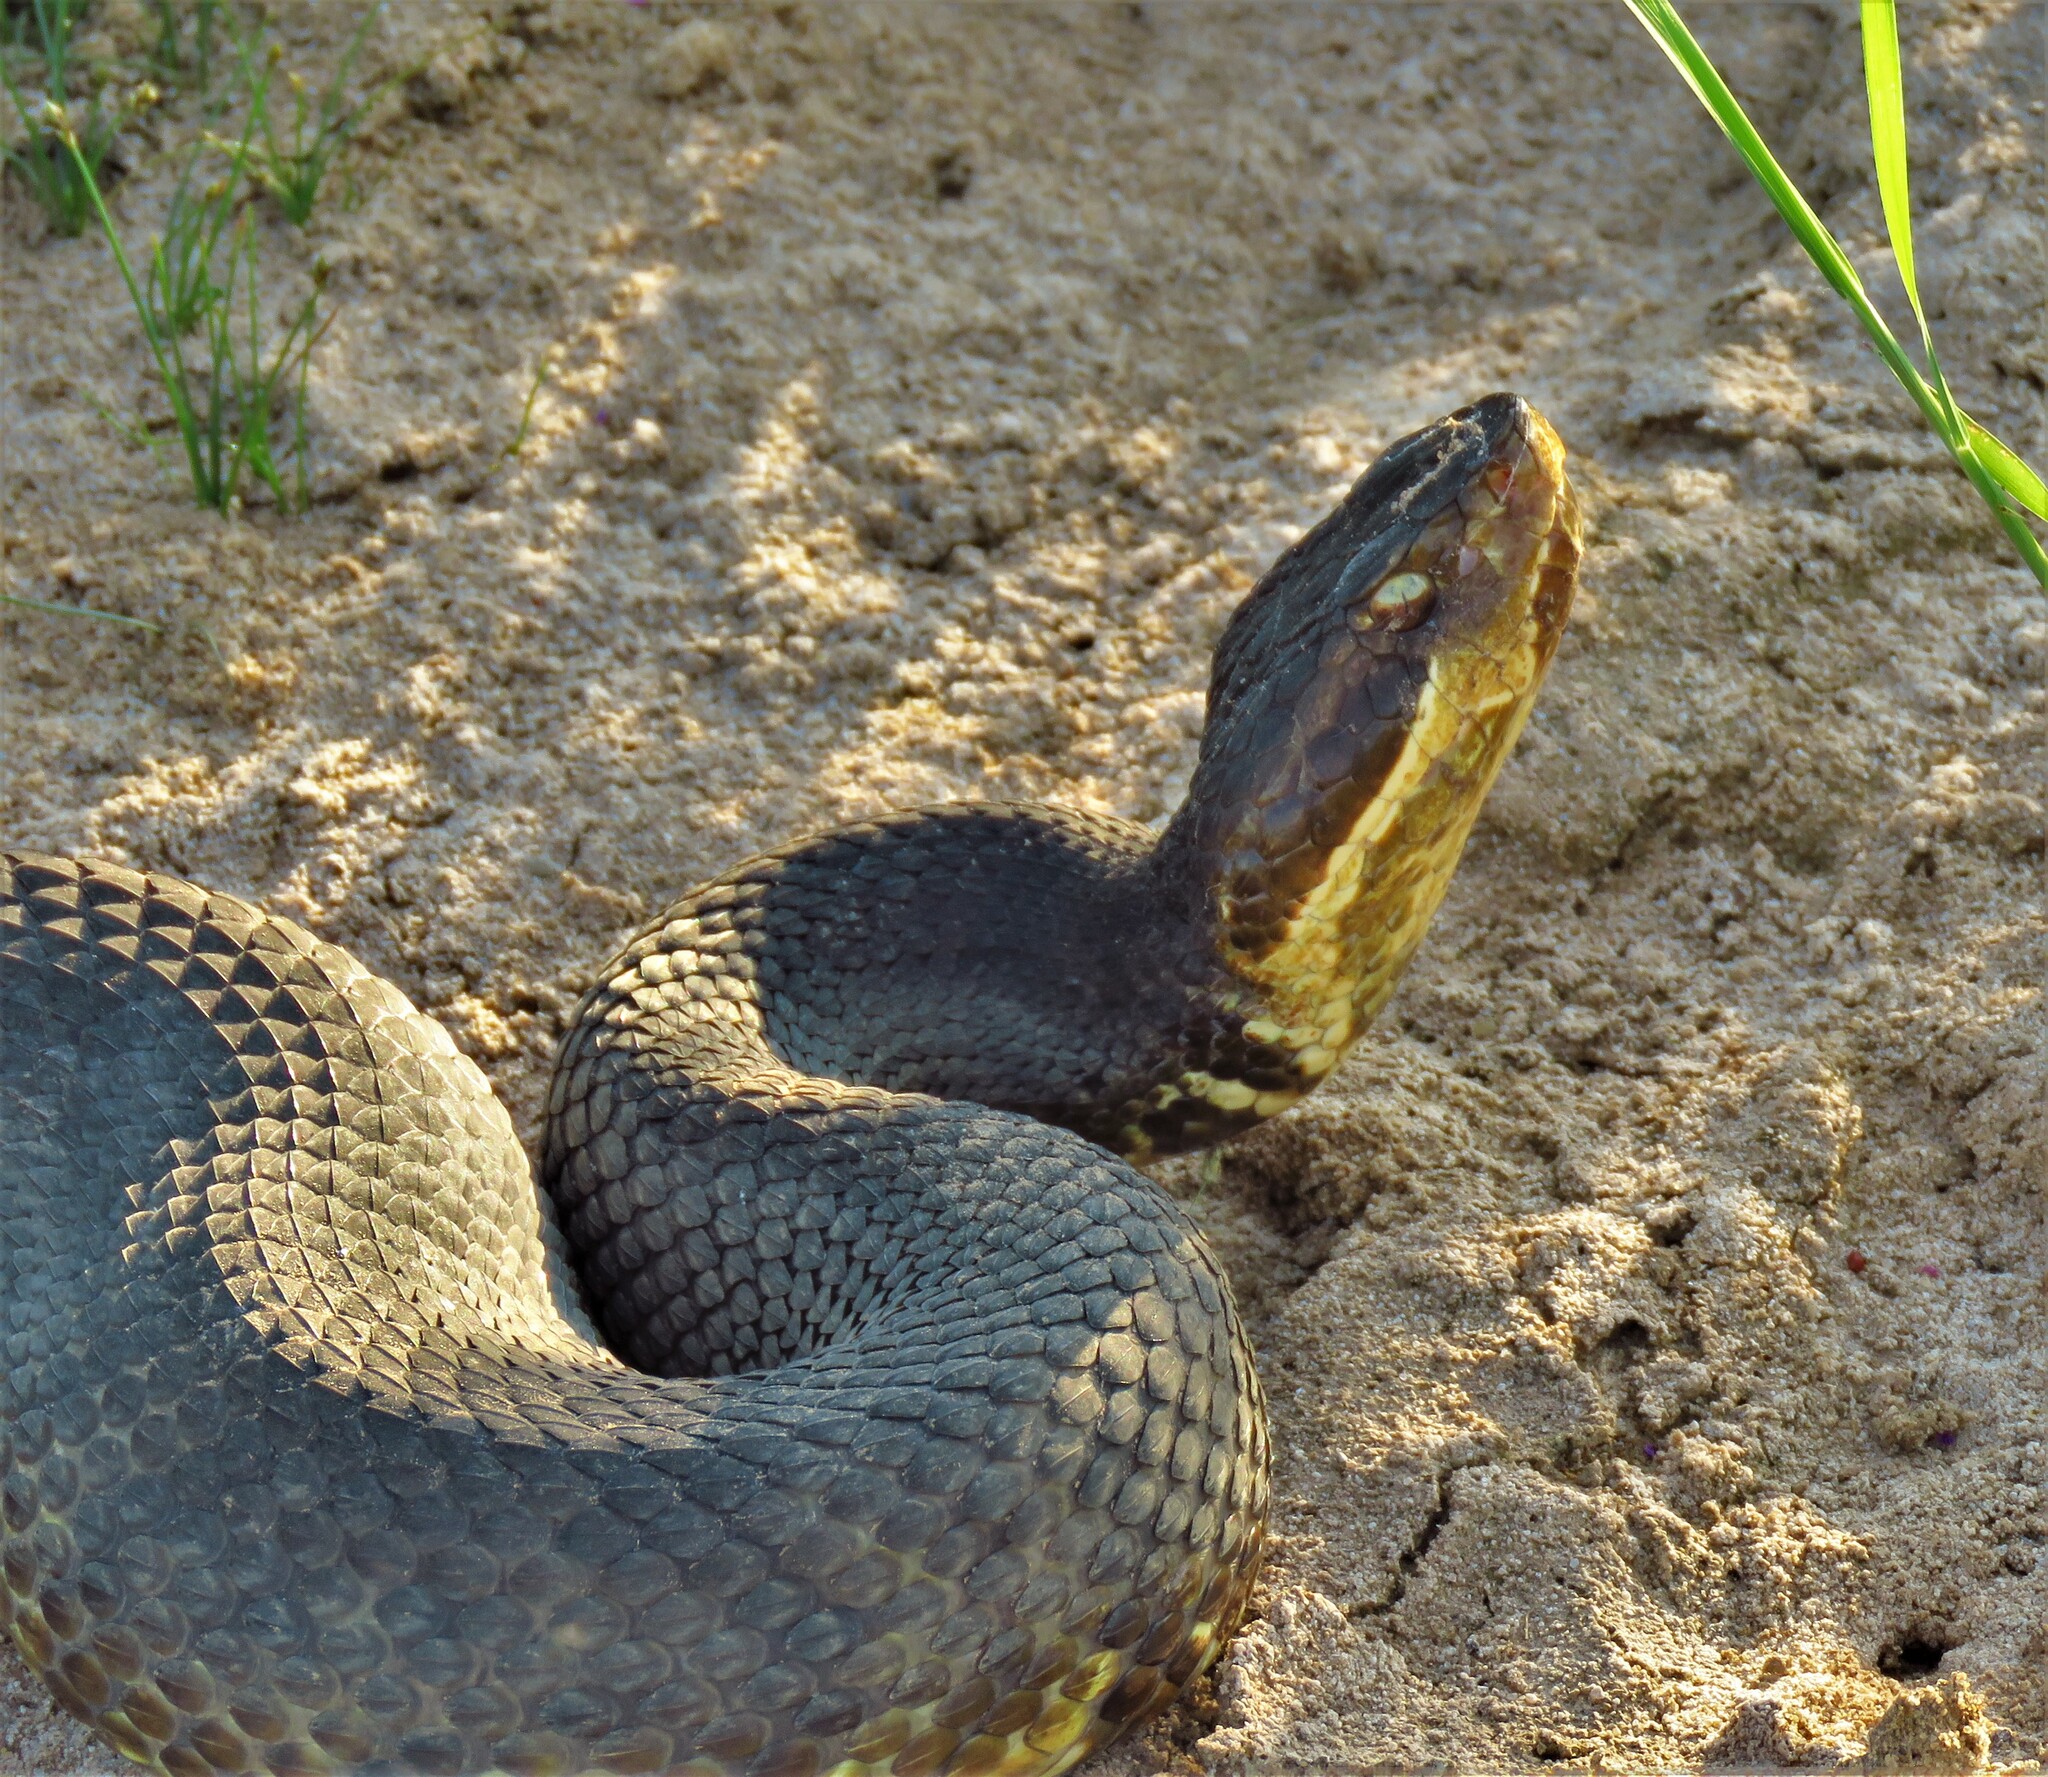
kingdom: Animalia
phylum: Chordata
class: Squamata
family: Viperidae
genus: Agkistrodon
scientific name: Agkistrodon piscivorus
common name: Cottonmouth
